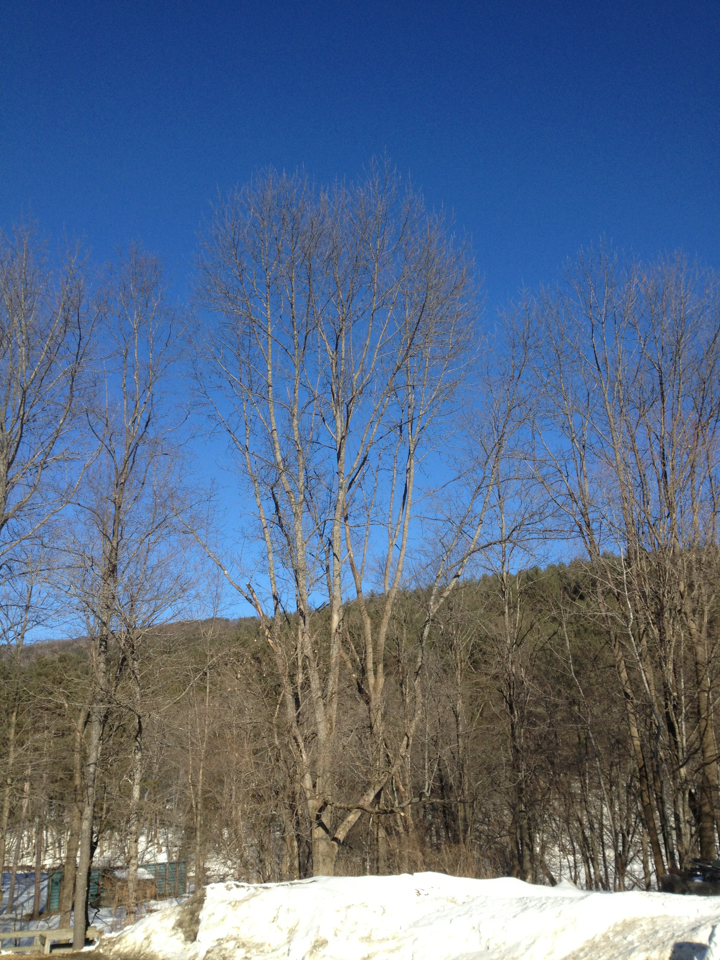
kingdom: Plantae
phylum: Tracheophyta
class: Magnoliopsida
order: Sapindales
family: Sapindaceae
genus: Acer
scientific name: Acer saccharum
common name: Sugar maple
